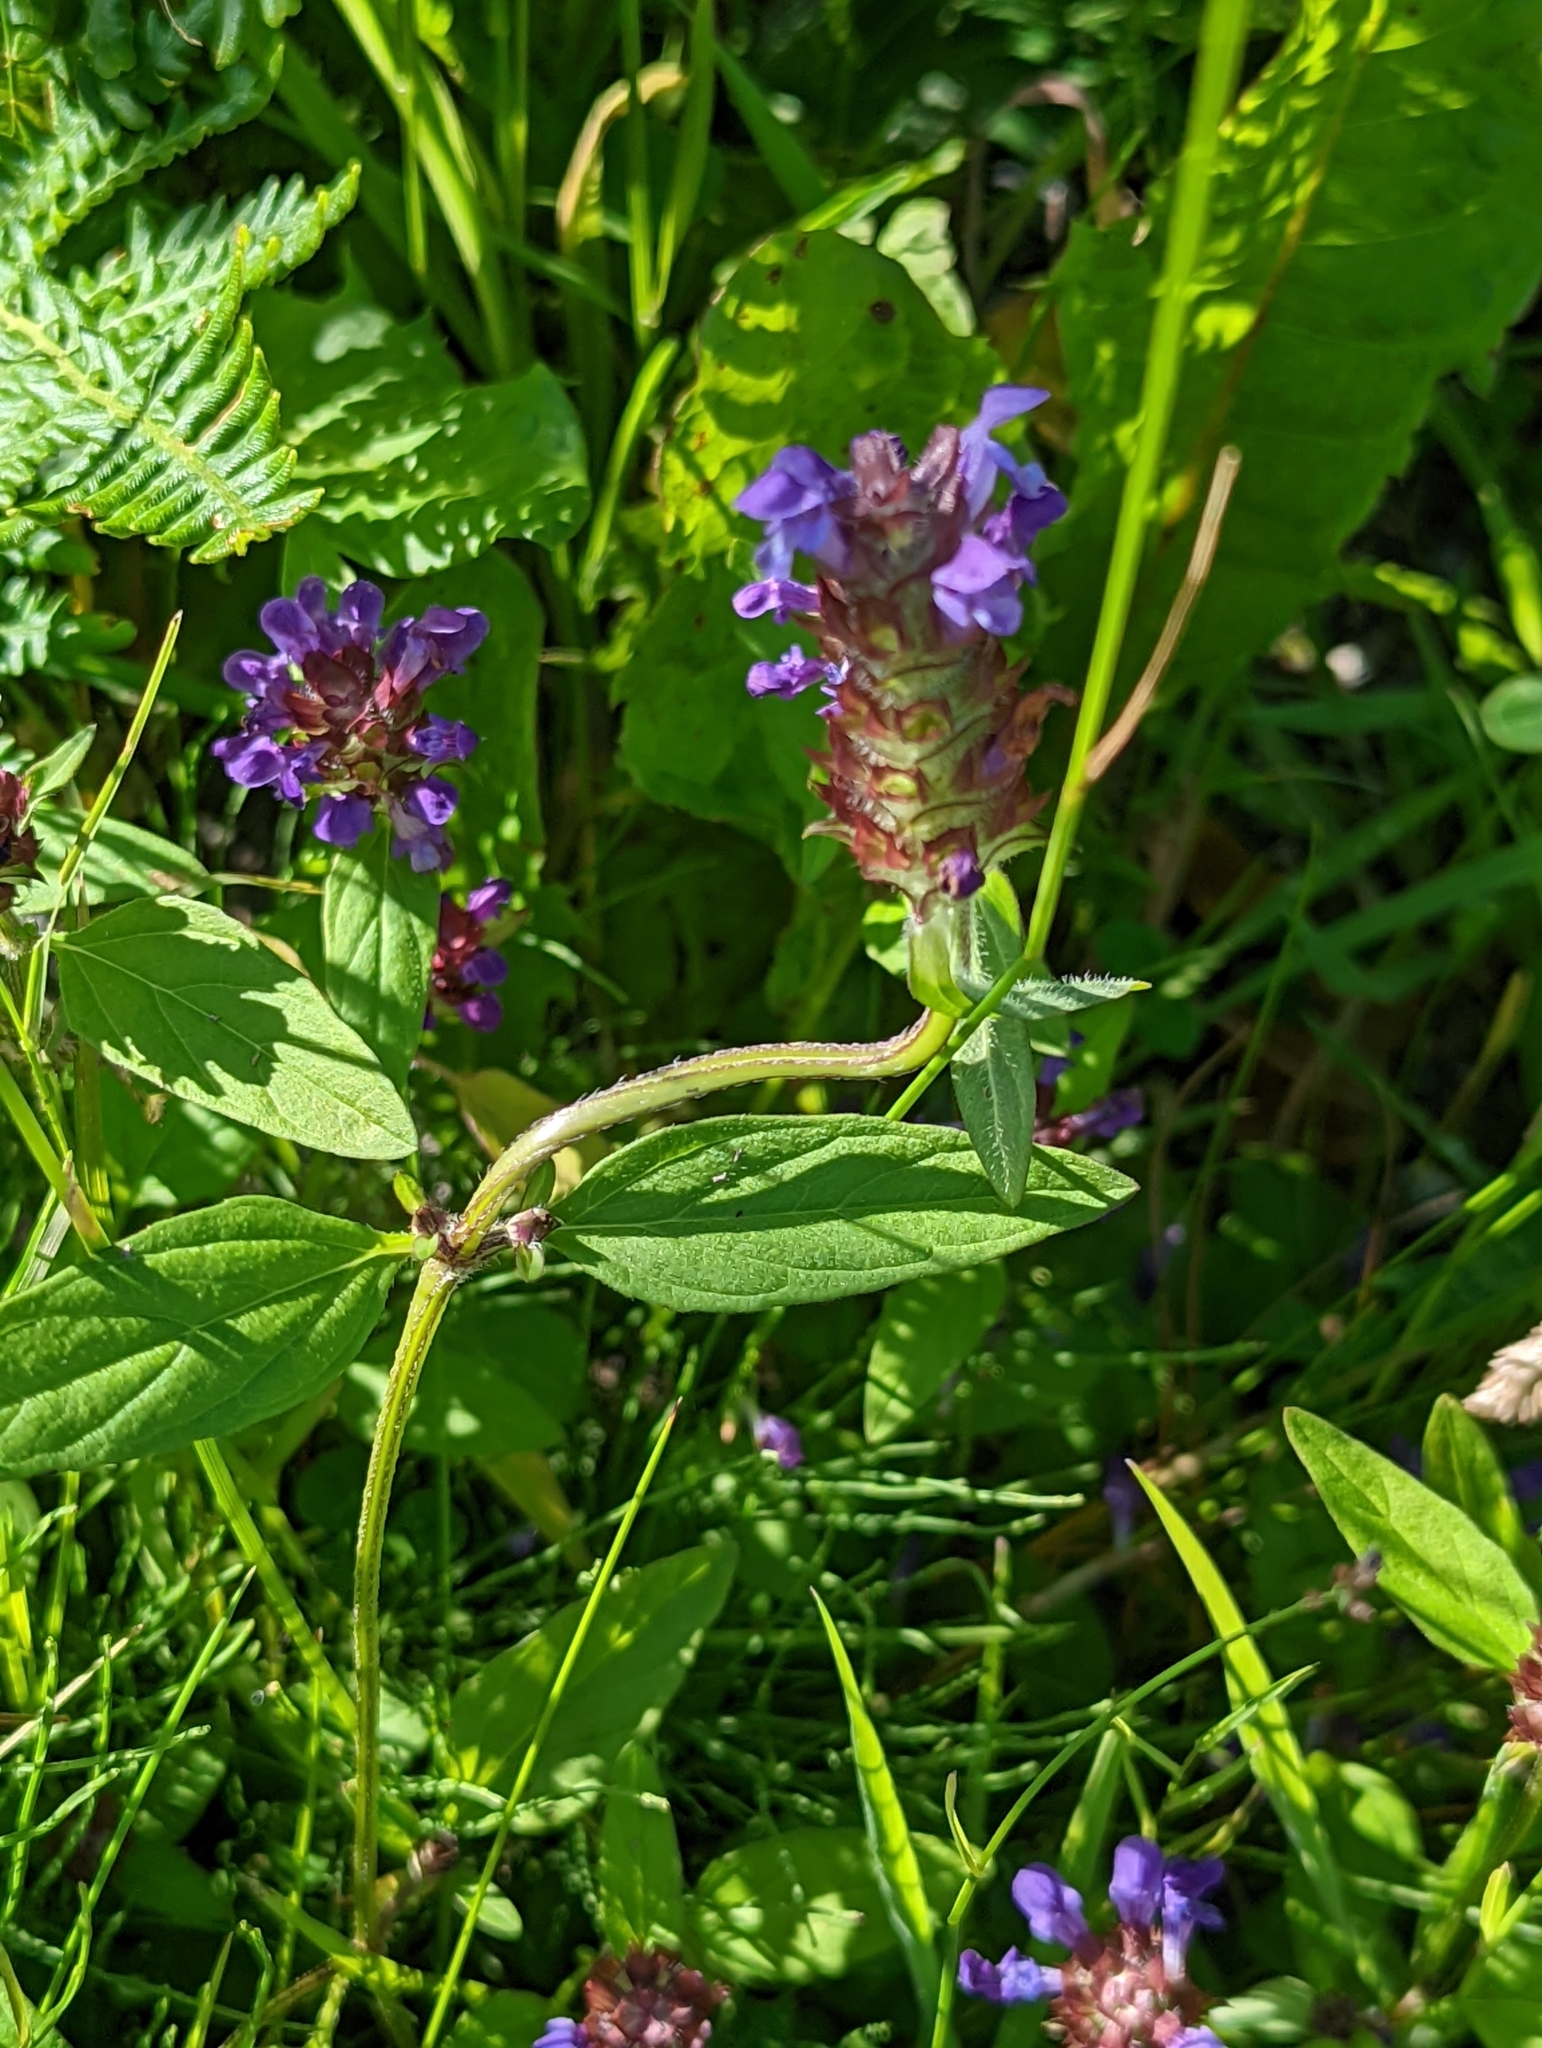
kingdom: Plantae
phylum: Tracheophyta
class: Magnoliopsida
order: Lamiales
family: Lamiaceae
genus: Prunella
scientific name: Prunella vulgaris
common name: Heal-all
